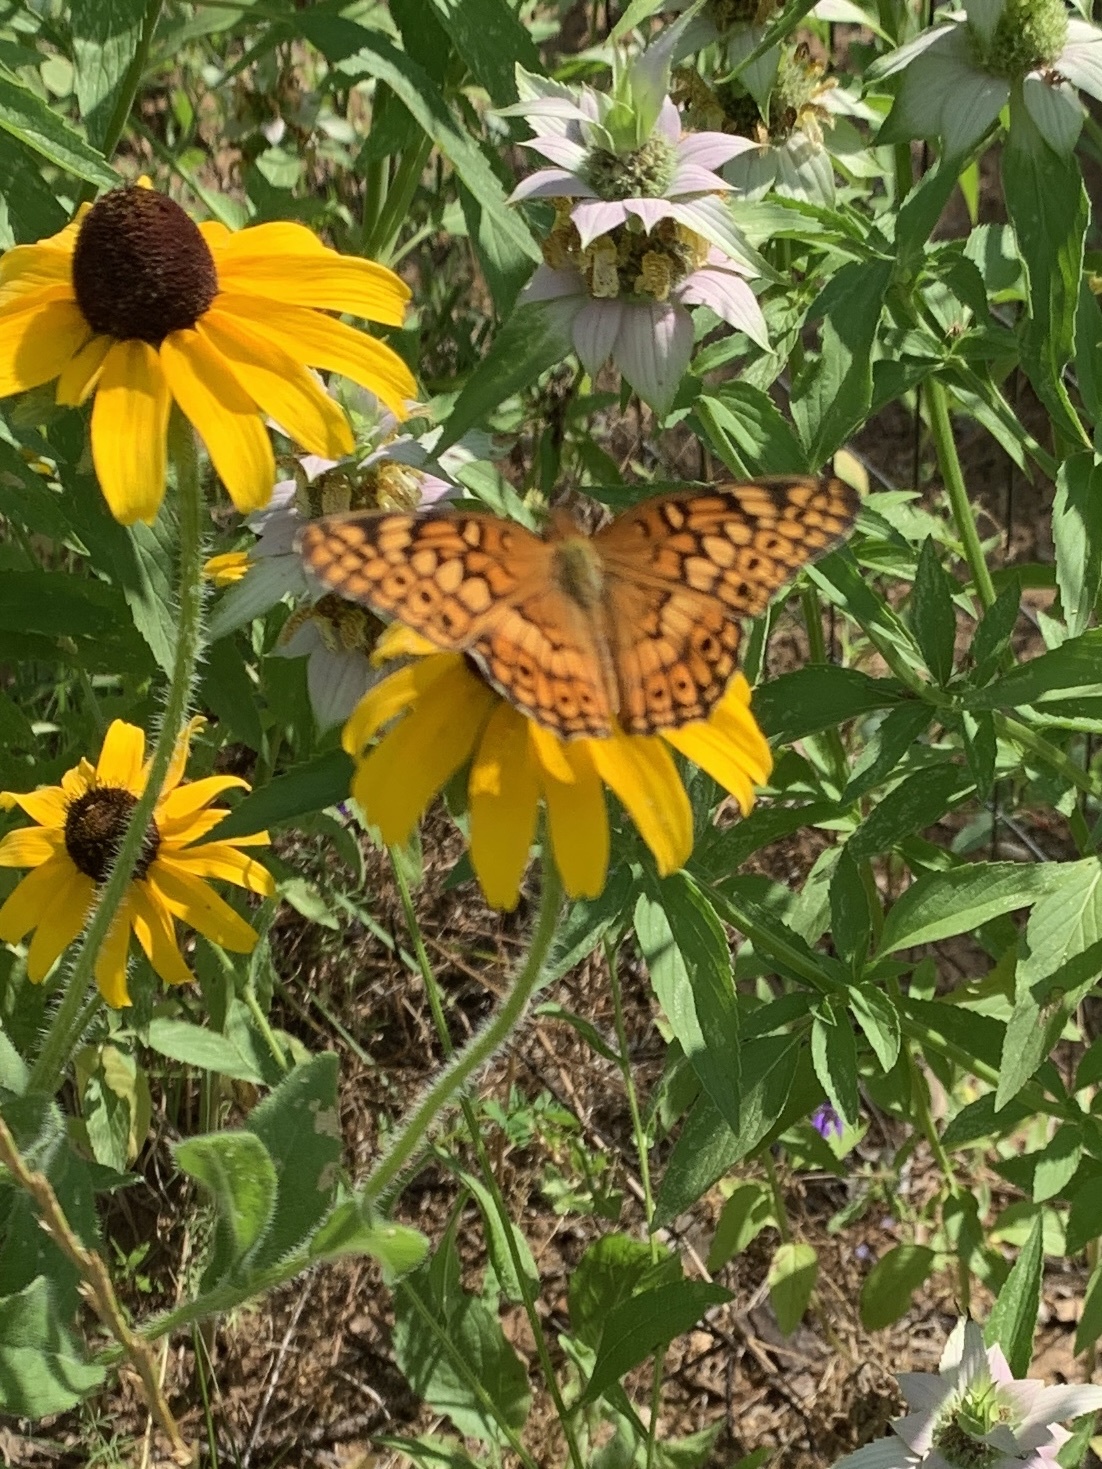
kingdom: Animalia
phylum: Arthropoda
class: Insecta
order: Lepidoptera
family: Nymphalidae
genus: Euptoieta
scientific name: Euptoieta claudia
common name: Variegated fritillary
